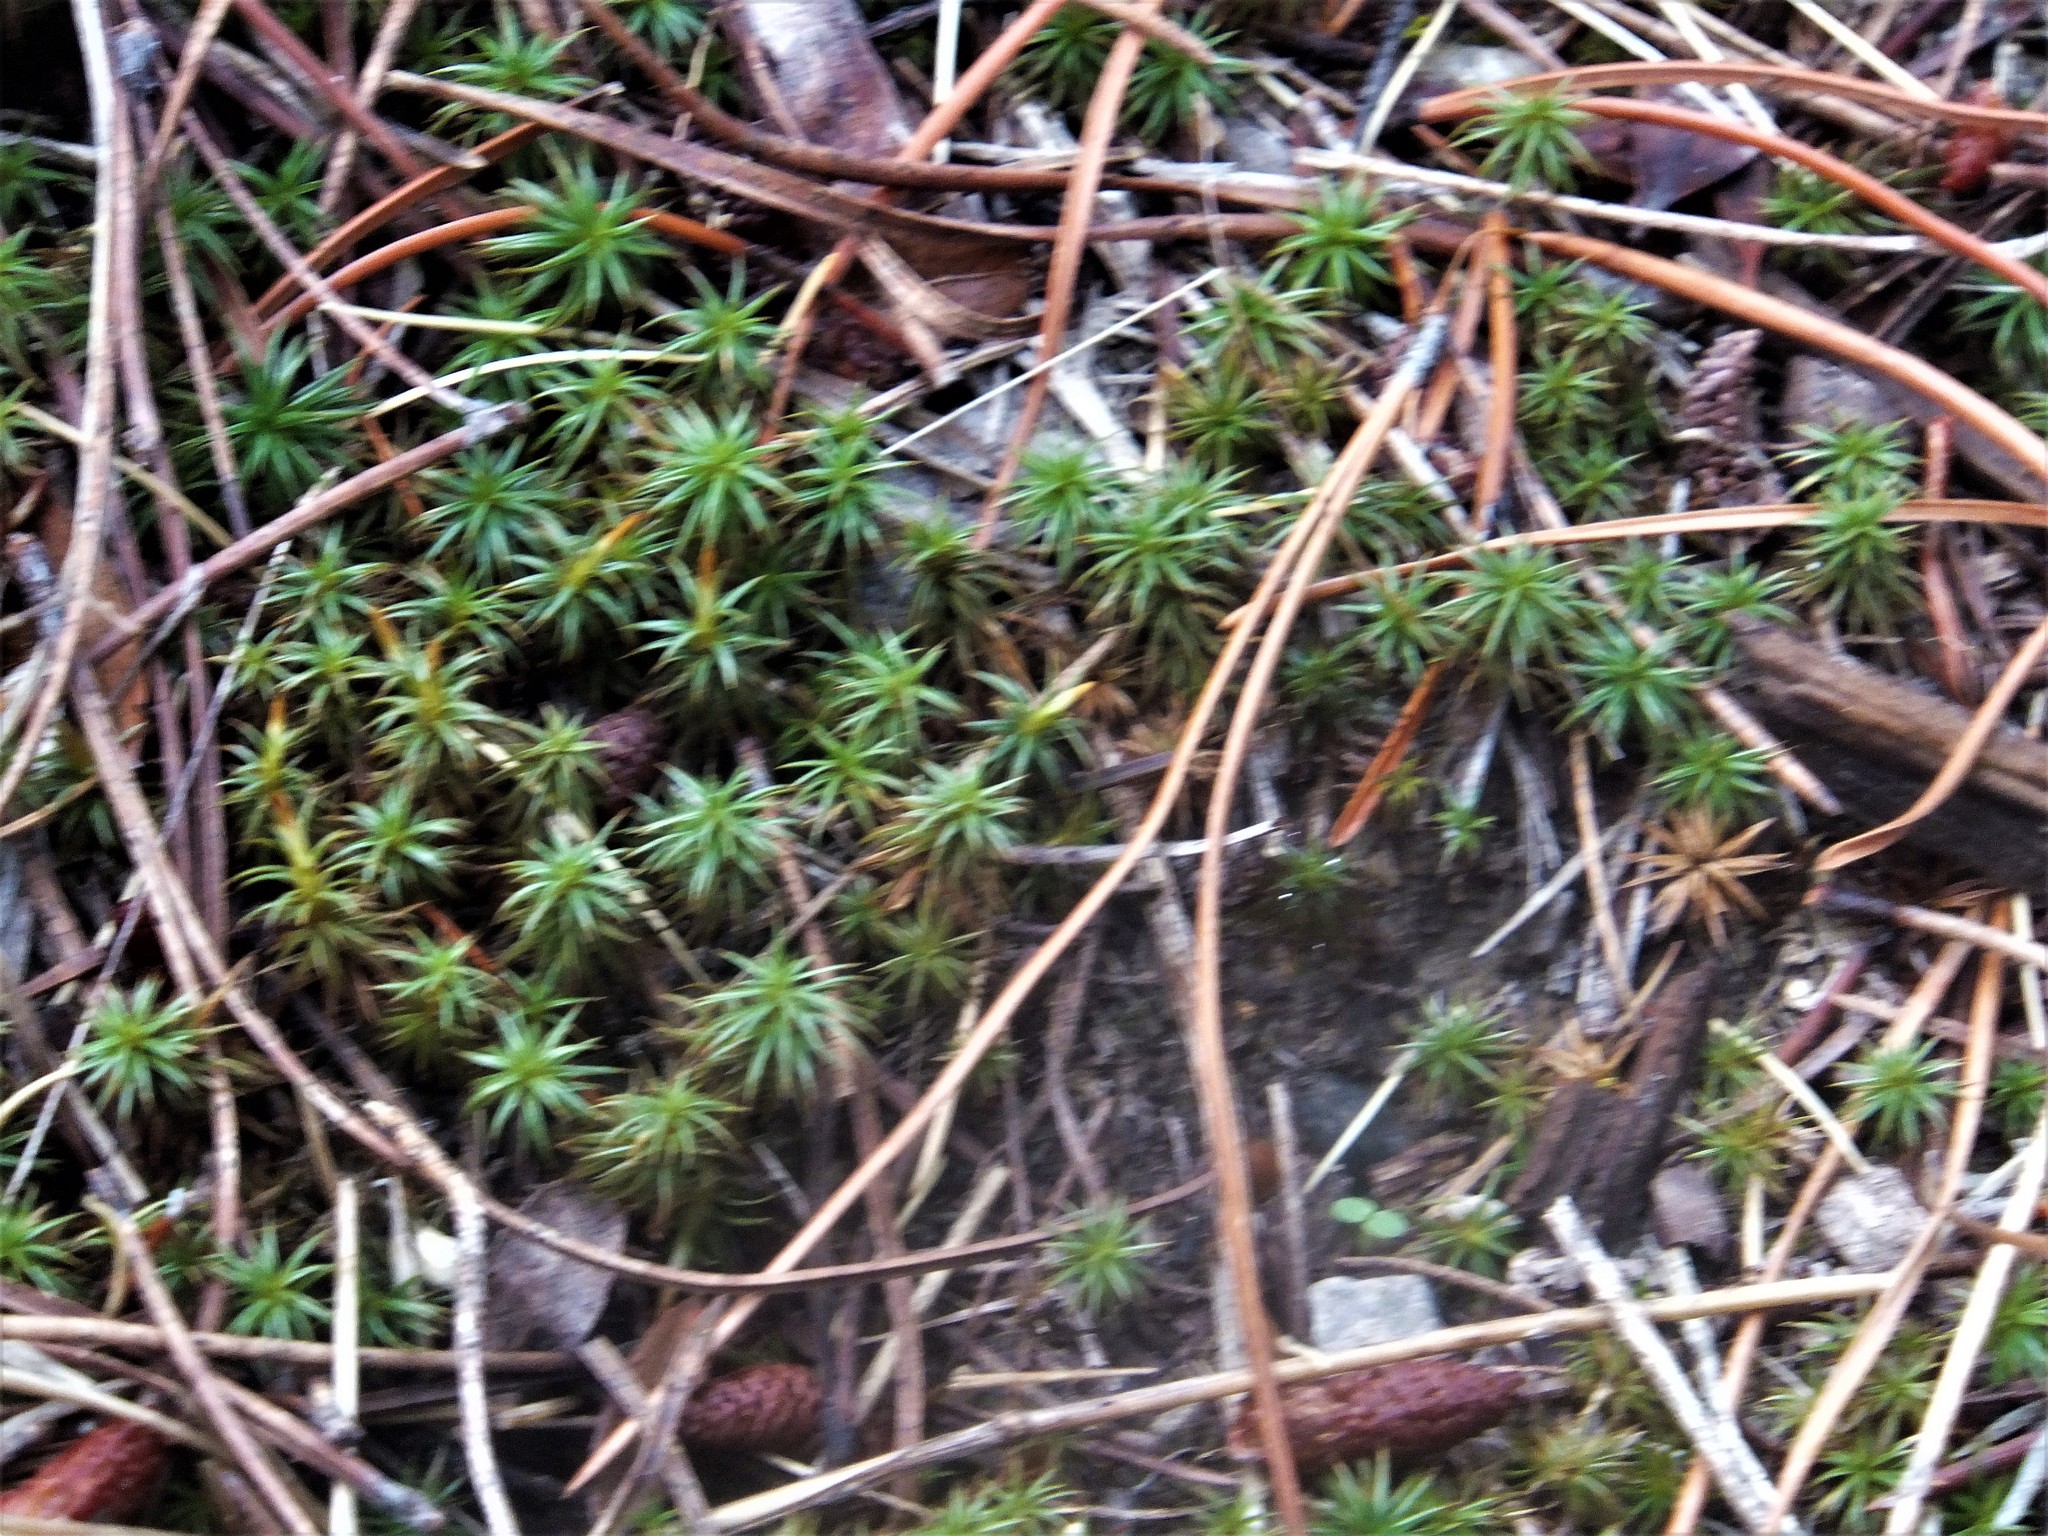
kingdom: Plantae
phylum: Bryophyta
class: Polytrichopsida
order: Polytrichales
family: Polytrichaceae
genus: Polytrichum
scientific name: Polytrichum juniperinum
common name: Juniper haircap moss
